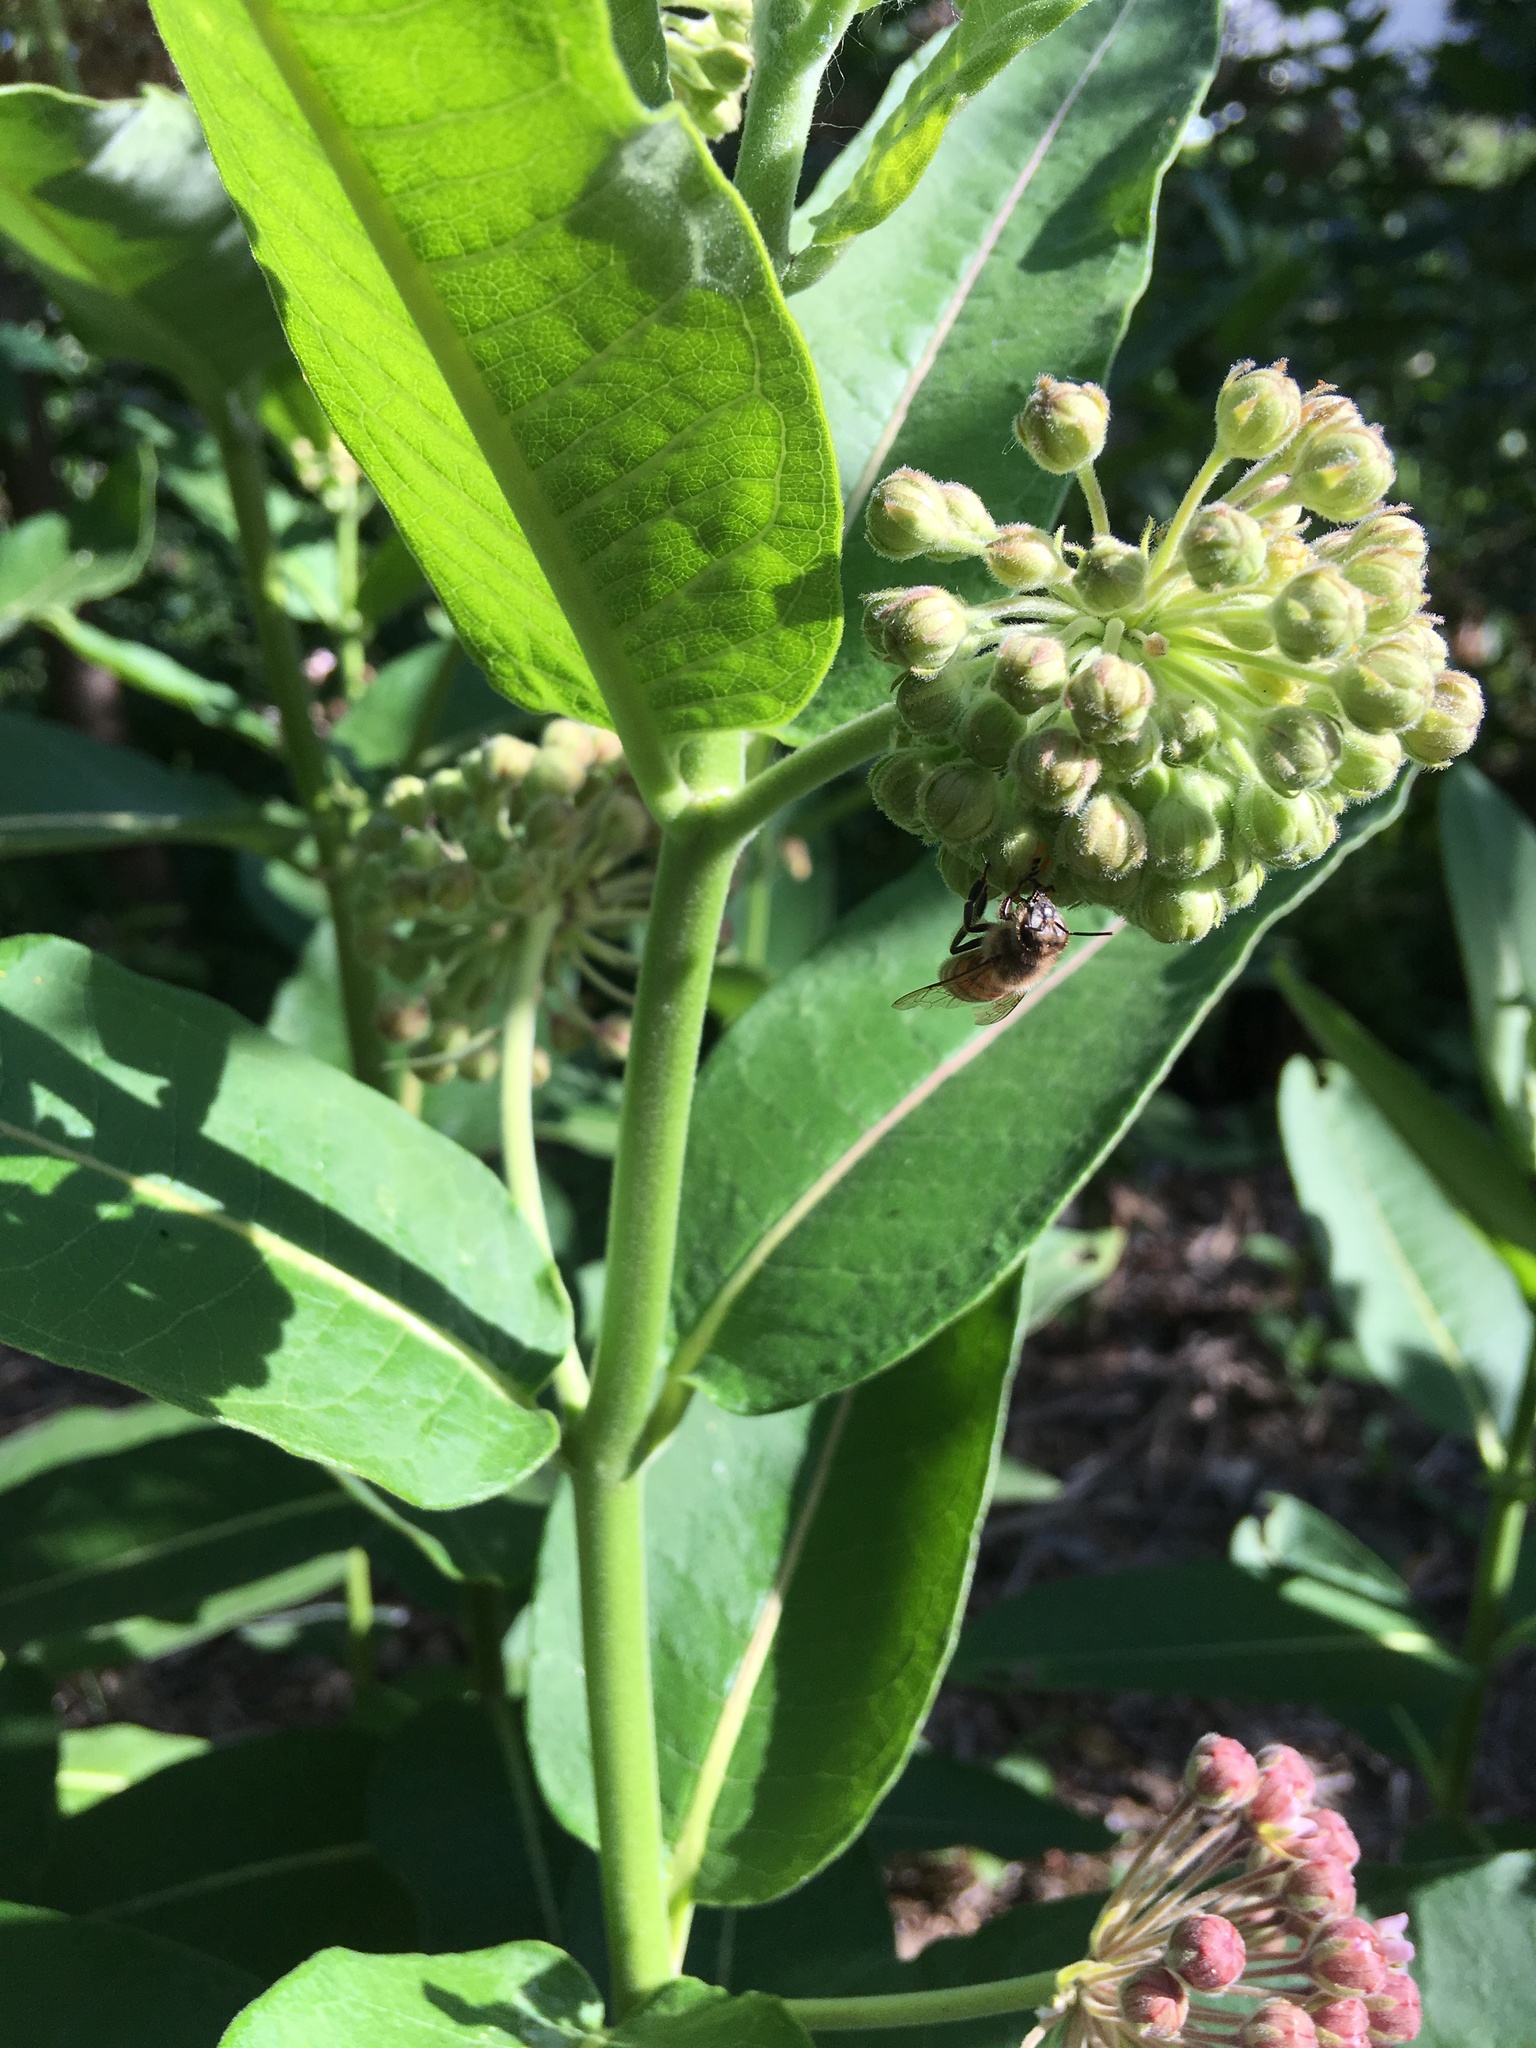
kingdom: Animalia
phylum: Arthropoda
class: Insecta
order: Hymenoptera
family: Apidae
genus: Apis
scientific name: Apis mellifera
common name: Honey bee
